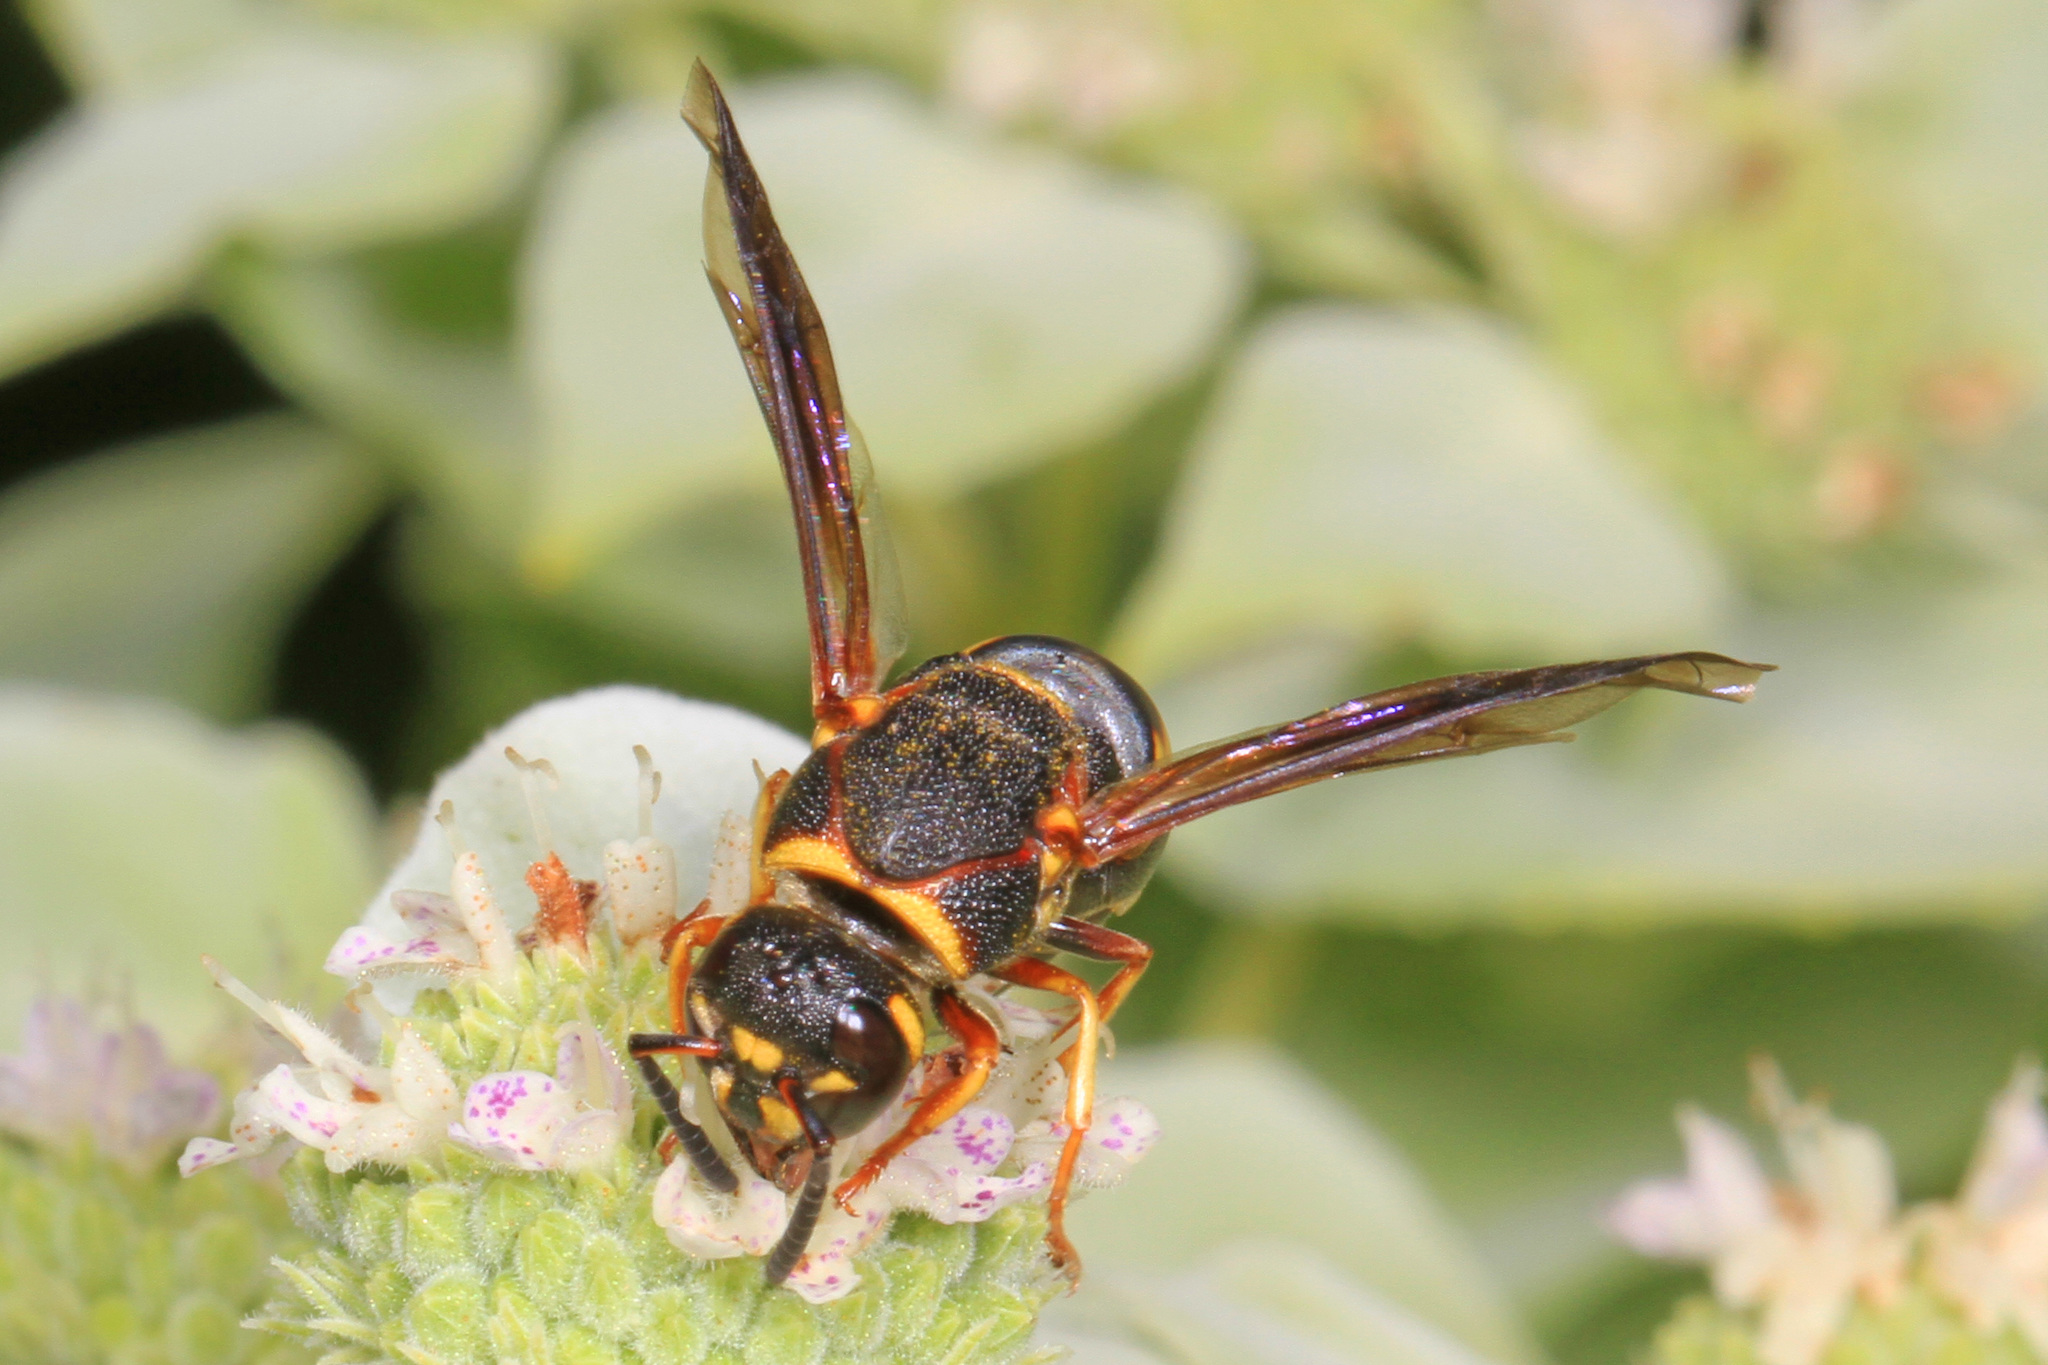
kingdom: Animalia
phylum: Arthropoda
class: Insecta
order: Hymenoptera
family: Eumenidae
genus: Euodynerus
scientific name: Euodynerus hidalgo
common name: Wasp
